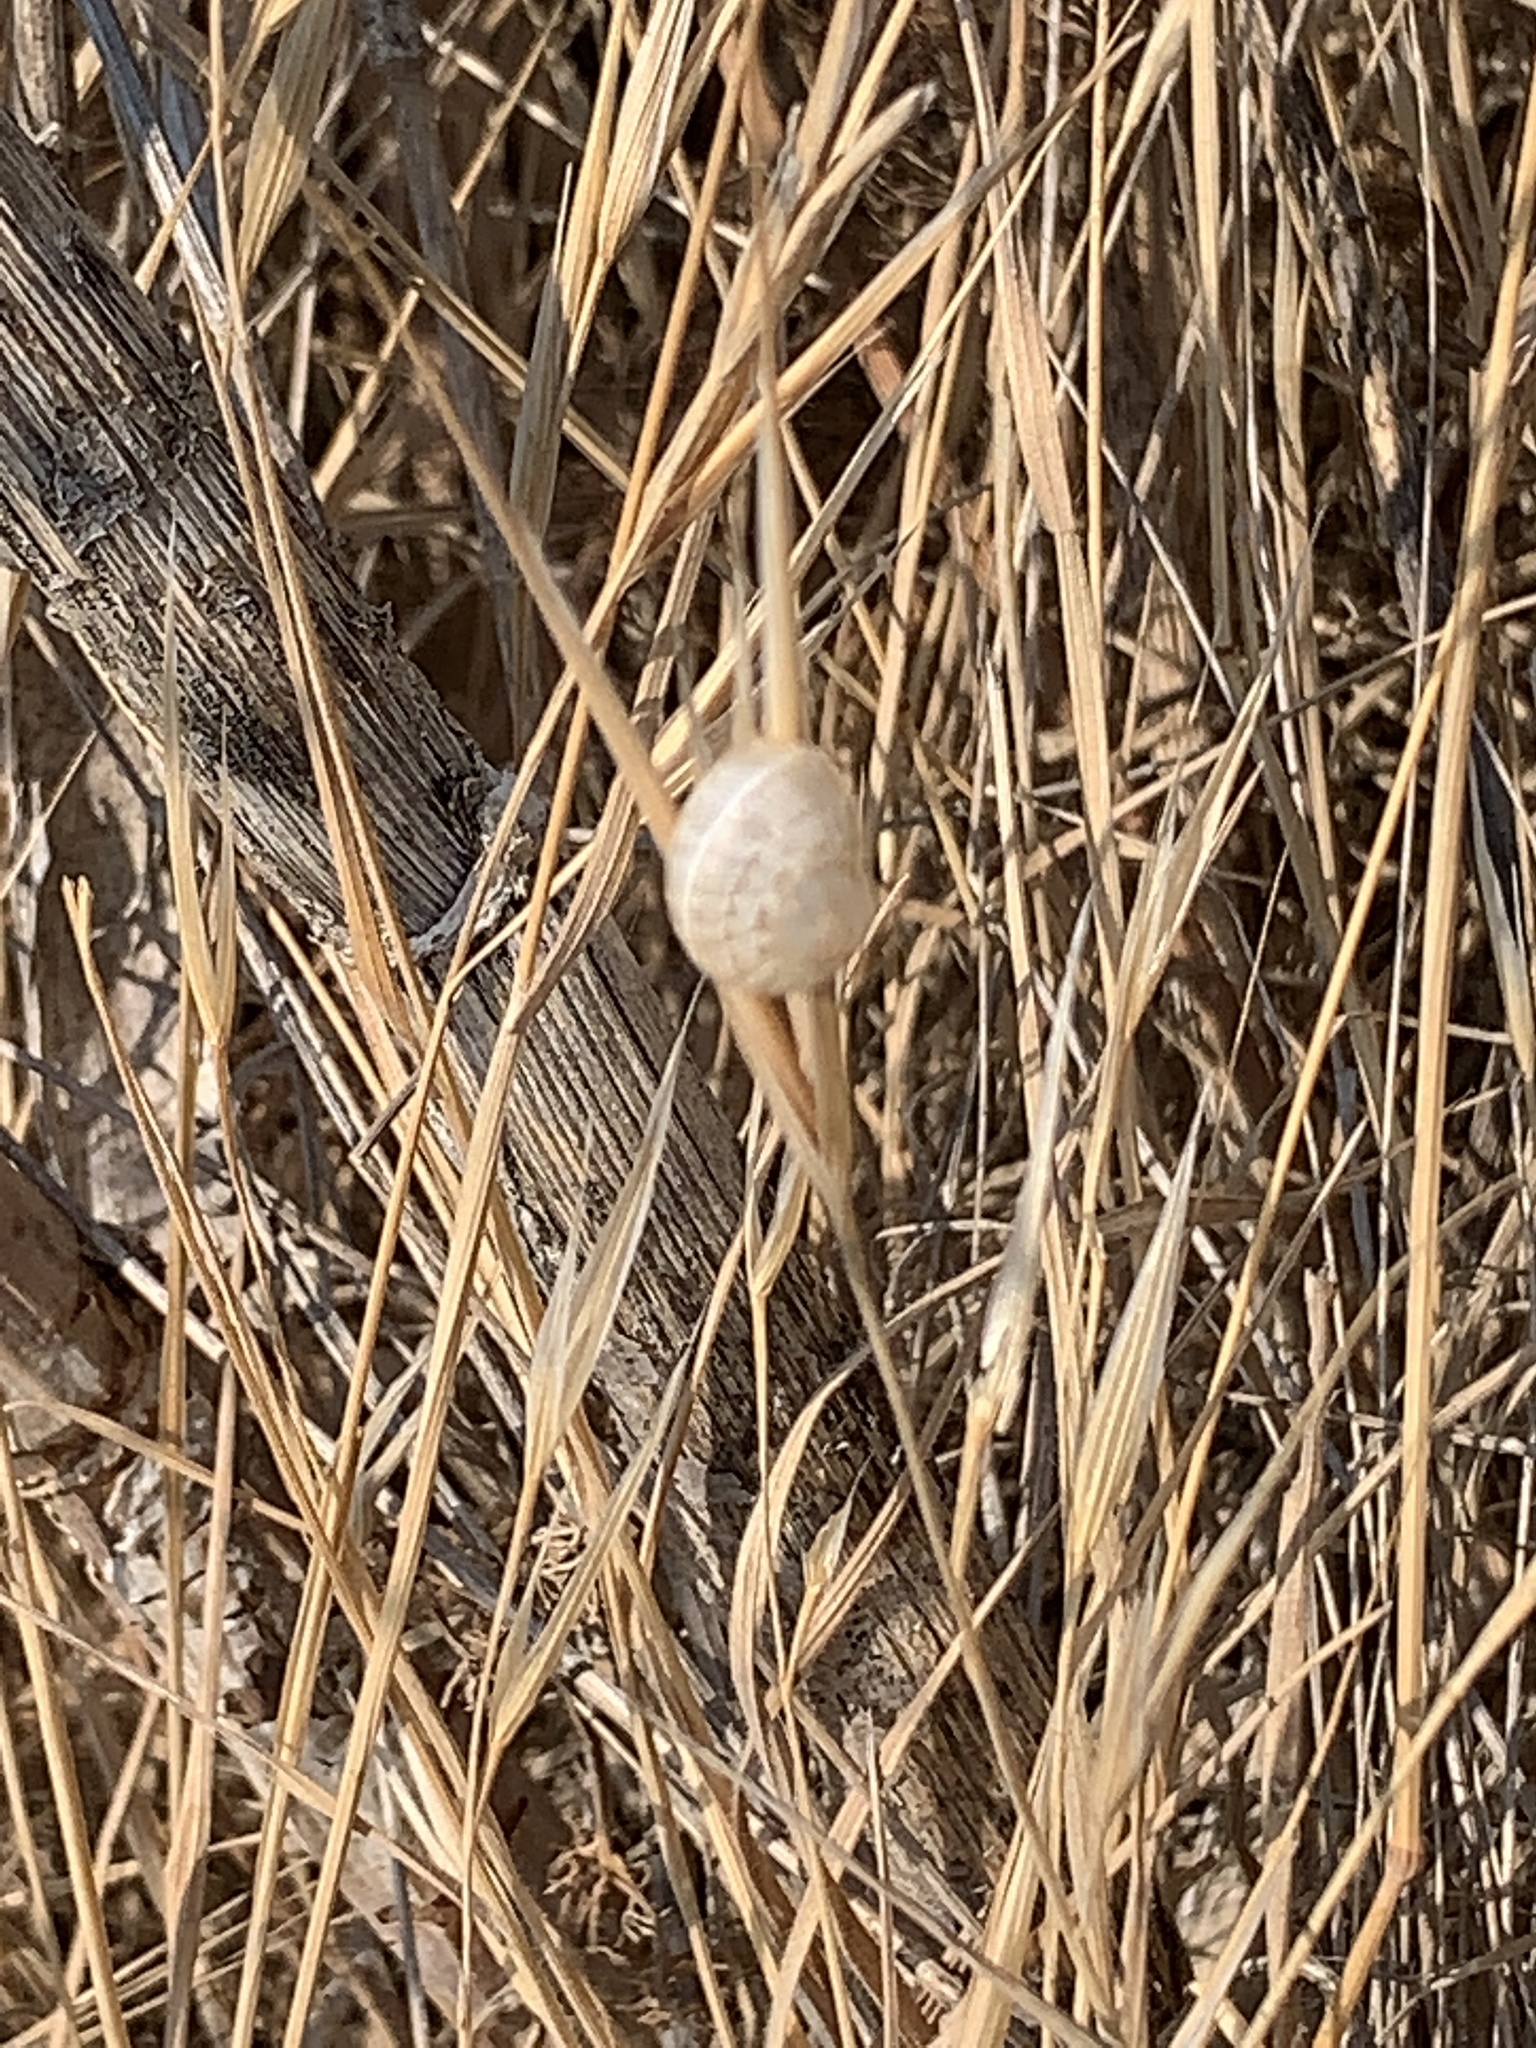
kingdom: Animalia
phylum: Mollusca
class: Gastropoda
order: Stylommatophora
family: Helicidae
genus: Cornu
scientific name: Cornu aspersum
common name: Brown garden snail
